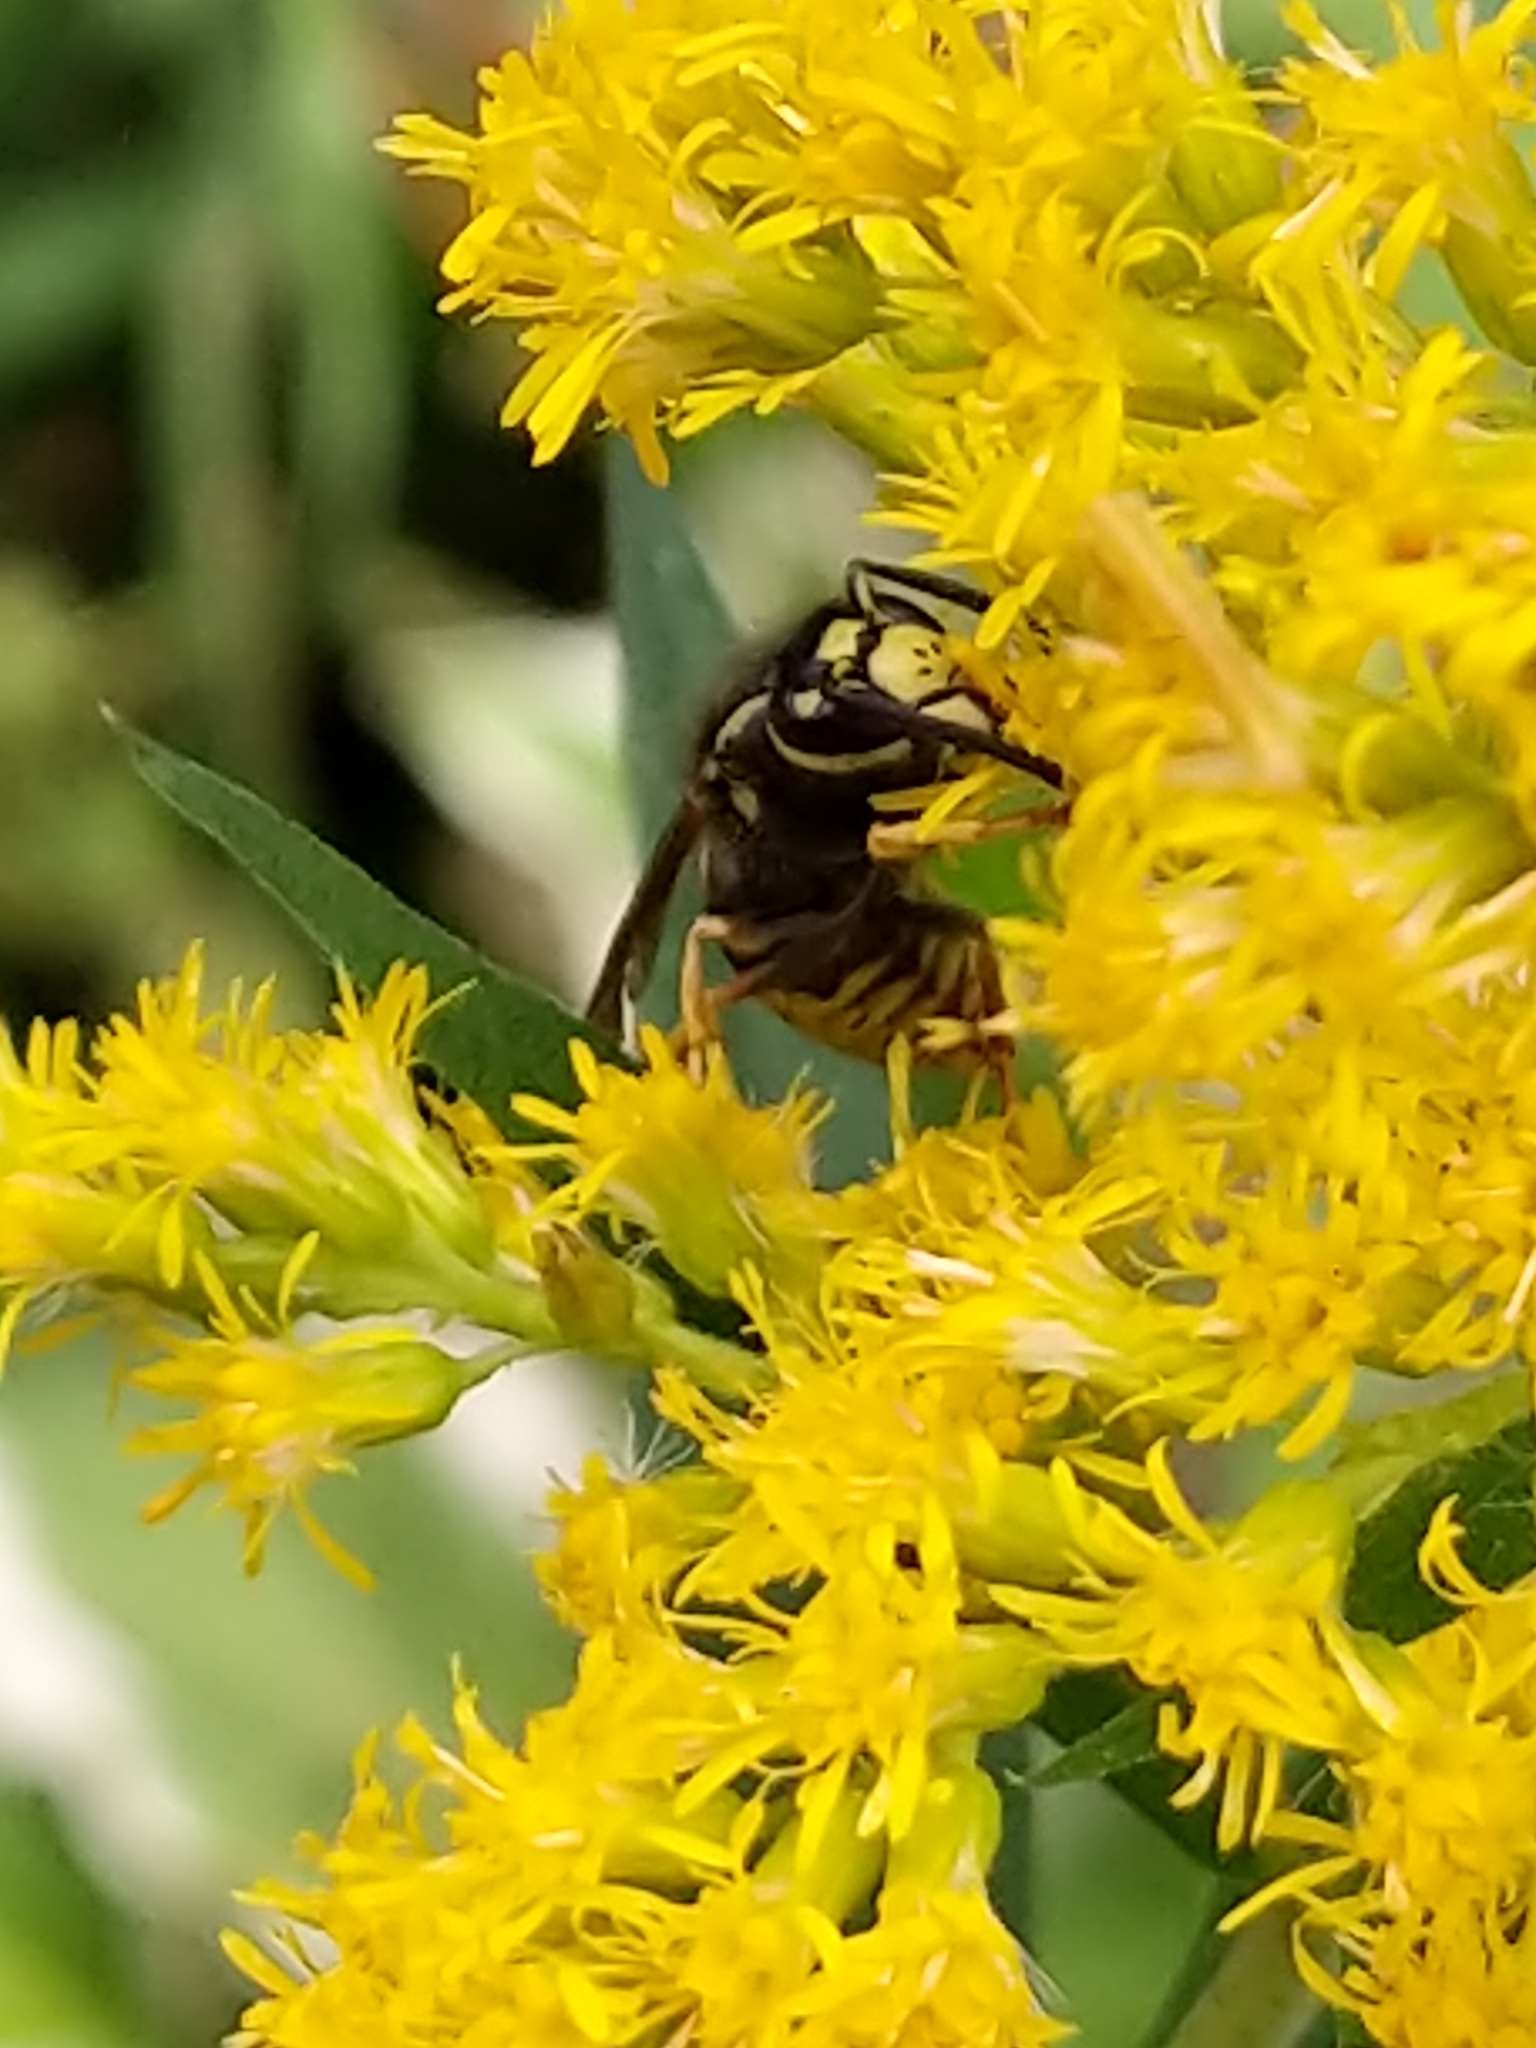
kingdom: Animalia
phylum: Arthropoda
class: Insecta
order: Hymenoptera
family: Vespidae
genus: Vespula
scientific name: Vespula vidua
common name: Widow yellowjacket
